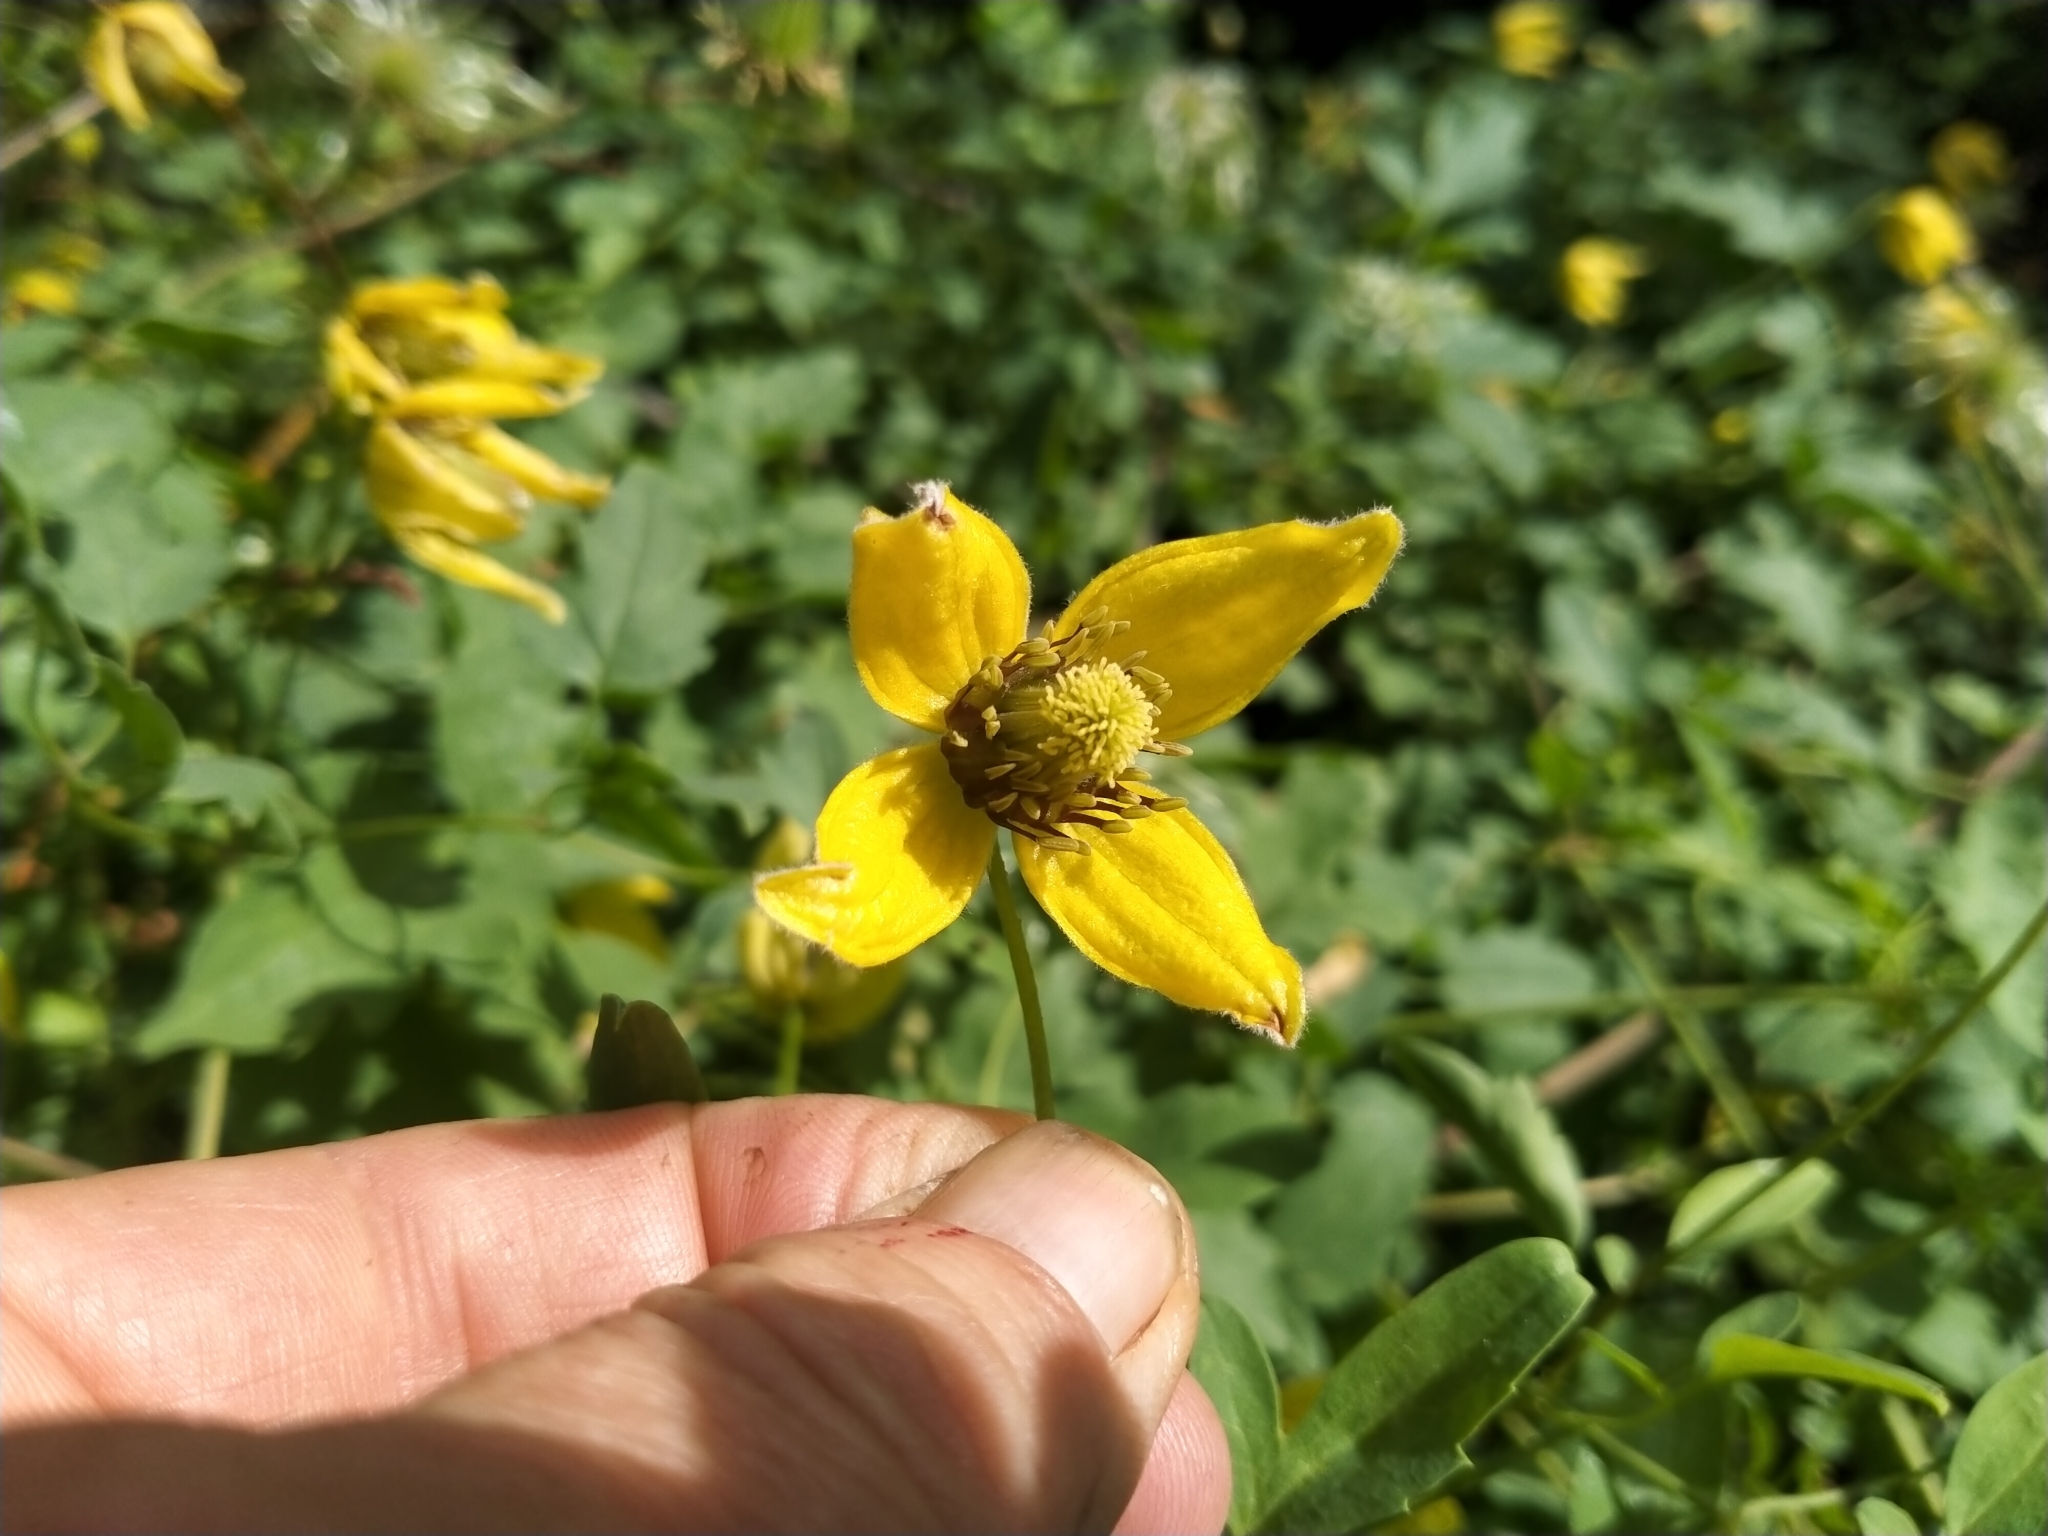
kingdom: Plantae
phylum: Tracheophyta
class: Magnoliopsida
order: Ranunculales
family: Ranunculaceae
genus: Clematis
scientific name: Clematis tangutica
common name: Orange-peel clematis
